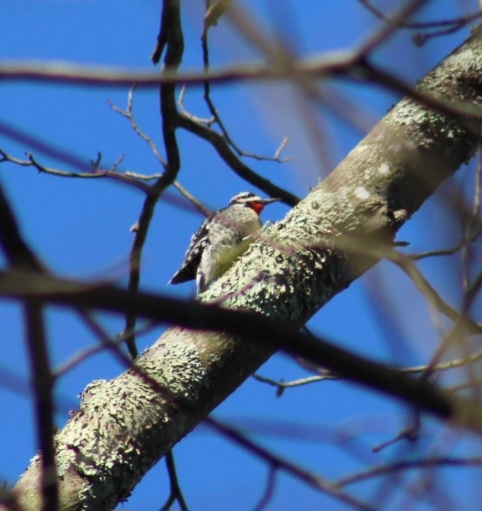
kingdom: Animalia
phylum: Chordata
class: Aves
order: Piciformes
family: Picidae
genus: Sphyrapicus
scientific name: Sphyrapicus varius
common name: Yellow-bellied sapsucker
